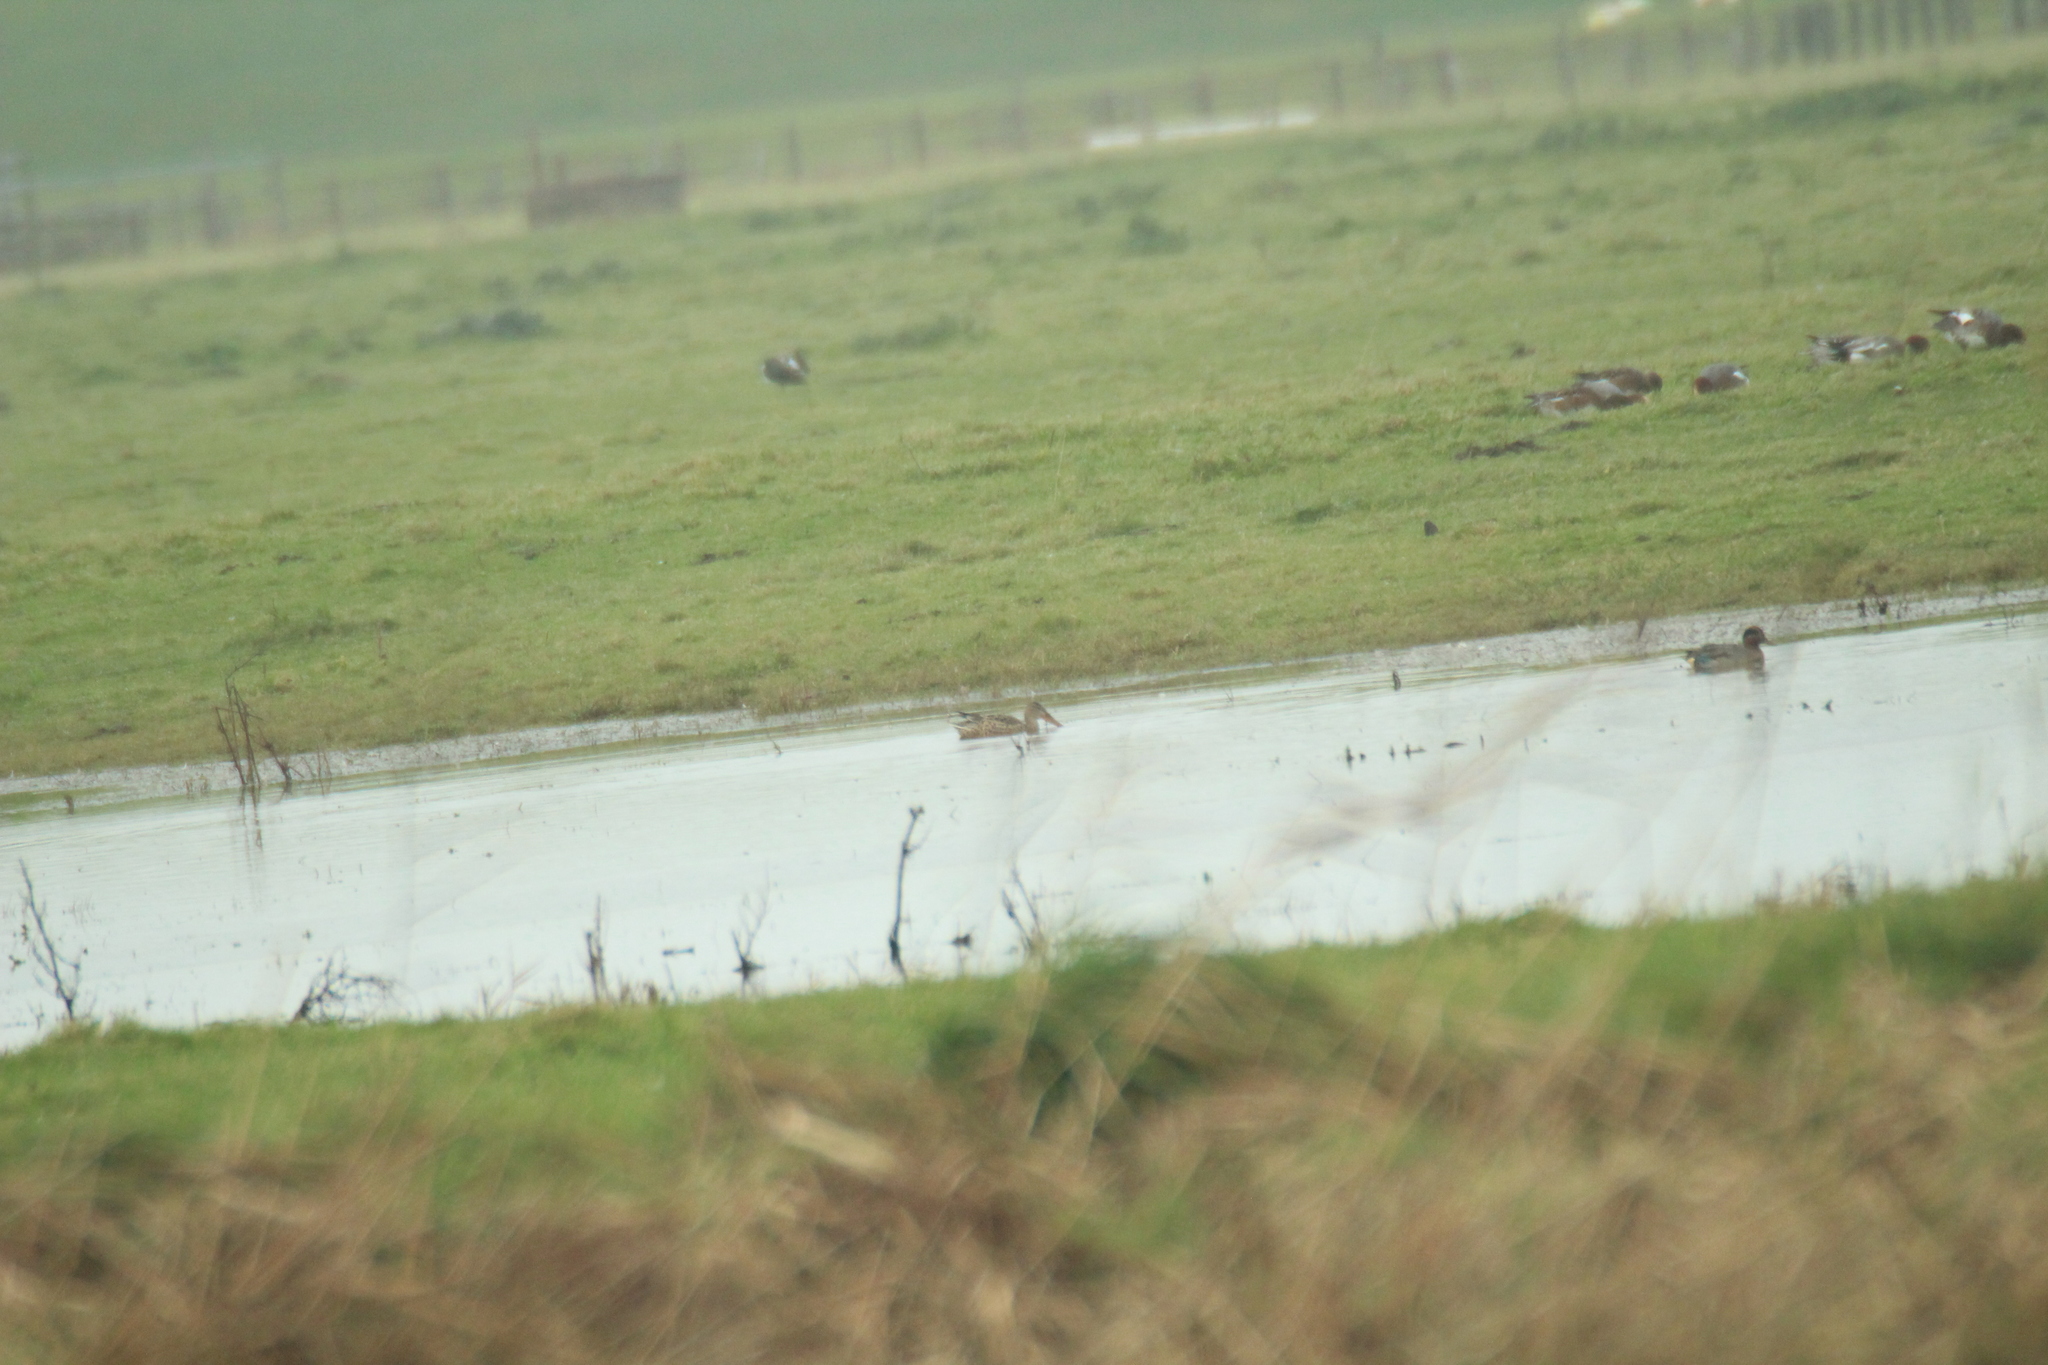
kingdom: Animalia
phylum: Chordata
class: Aves
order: Anseriformes
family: Anatidae
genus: Spatula
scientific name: Spatula clypeata
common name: Northern shoveler
